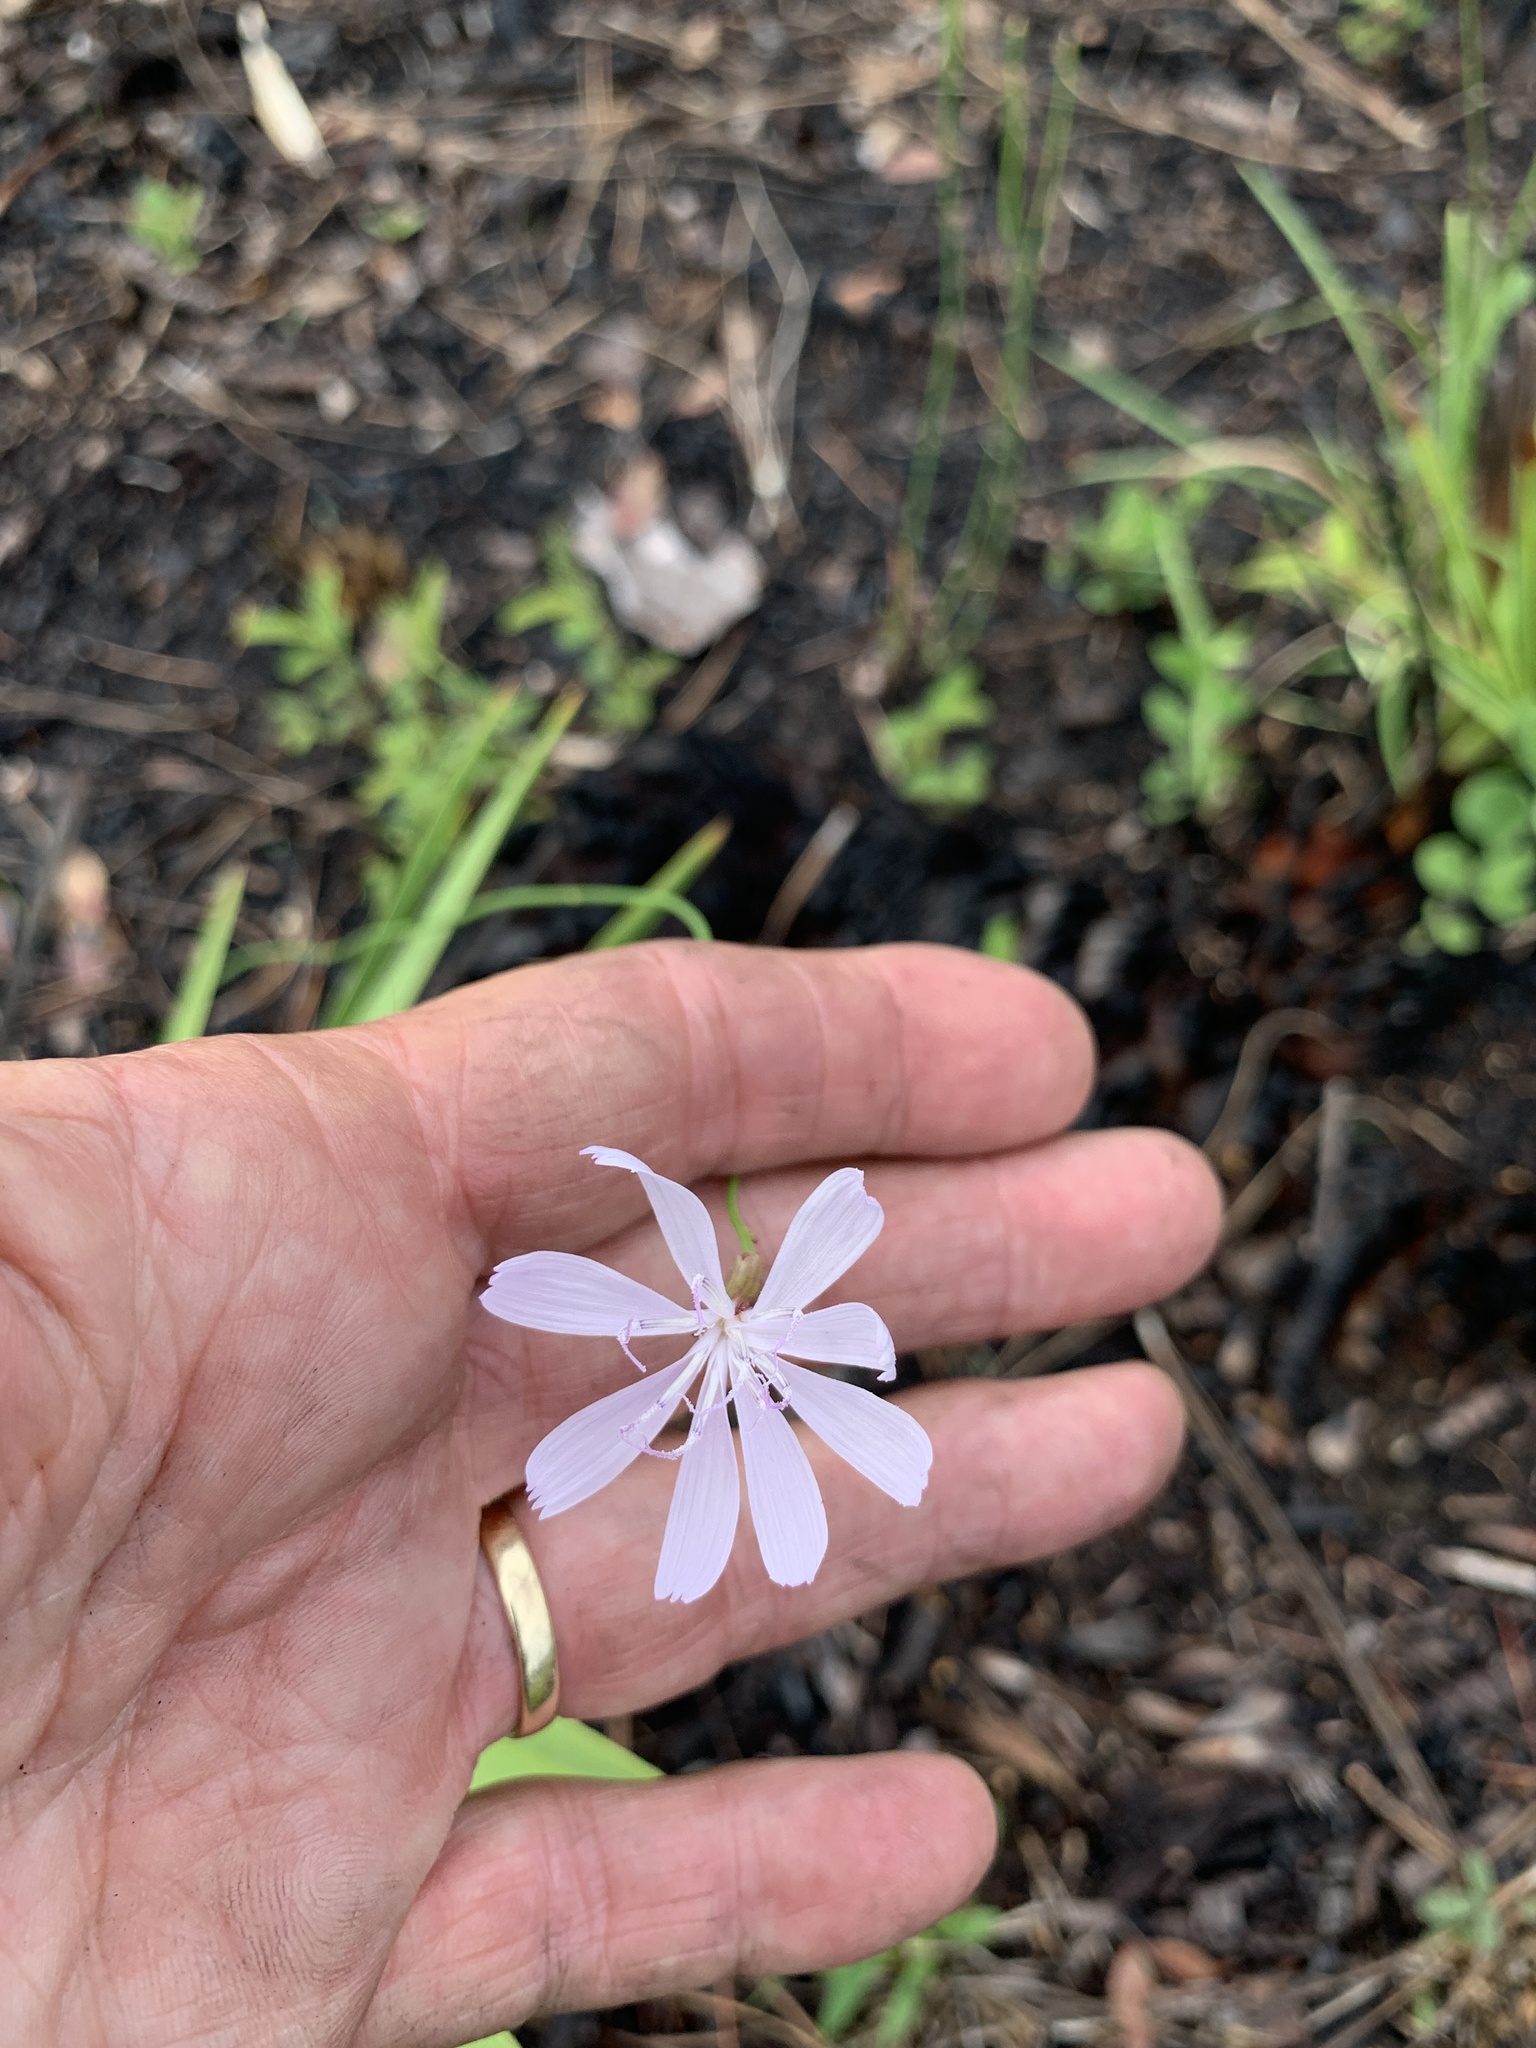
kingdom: Plantae
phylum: Tracheophyta
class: Magnoliopsida
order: Asterales
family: Asteraceae
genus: Lygodesmia
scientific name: Lygodesmia aphylla
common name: Rose-rush
